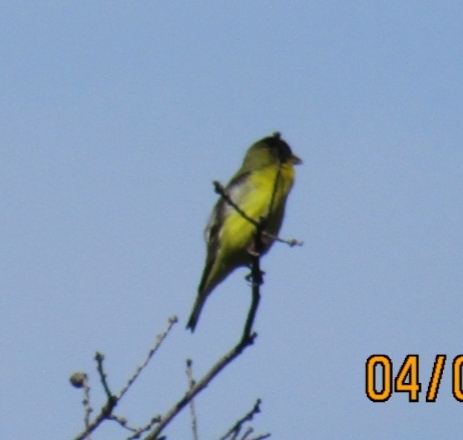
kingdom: Animalia
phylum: Chordata
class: Aves
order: Passeriformes
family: Fringillidae
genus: Spinus
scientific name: Spinus psaltria
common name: Lesser goldfinch
